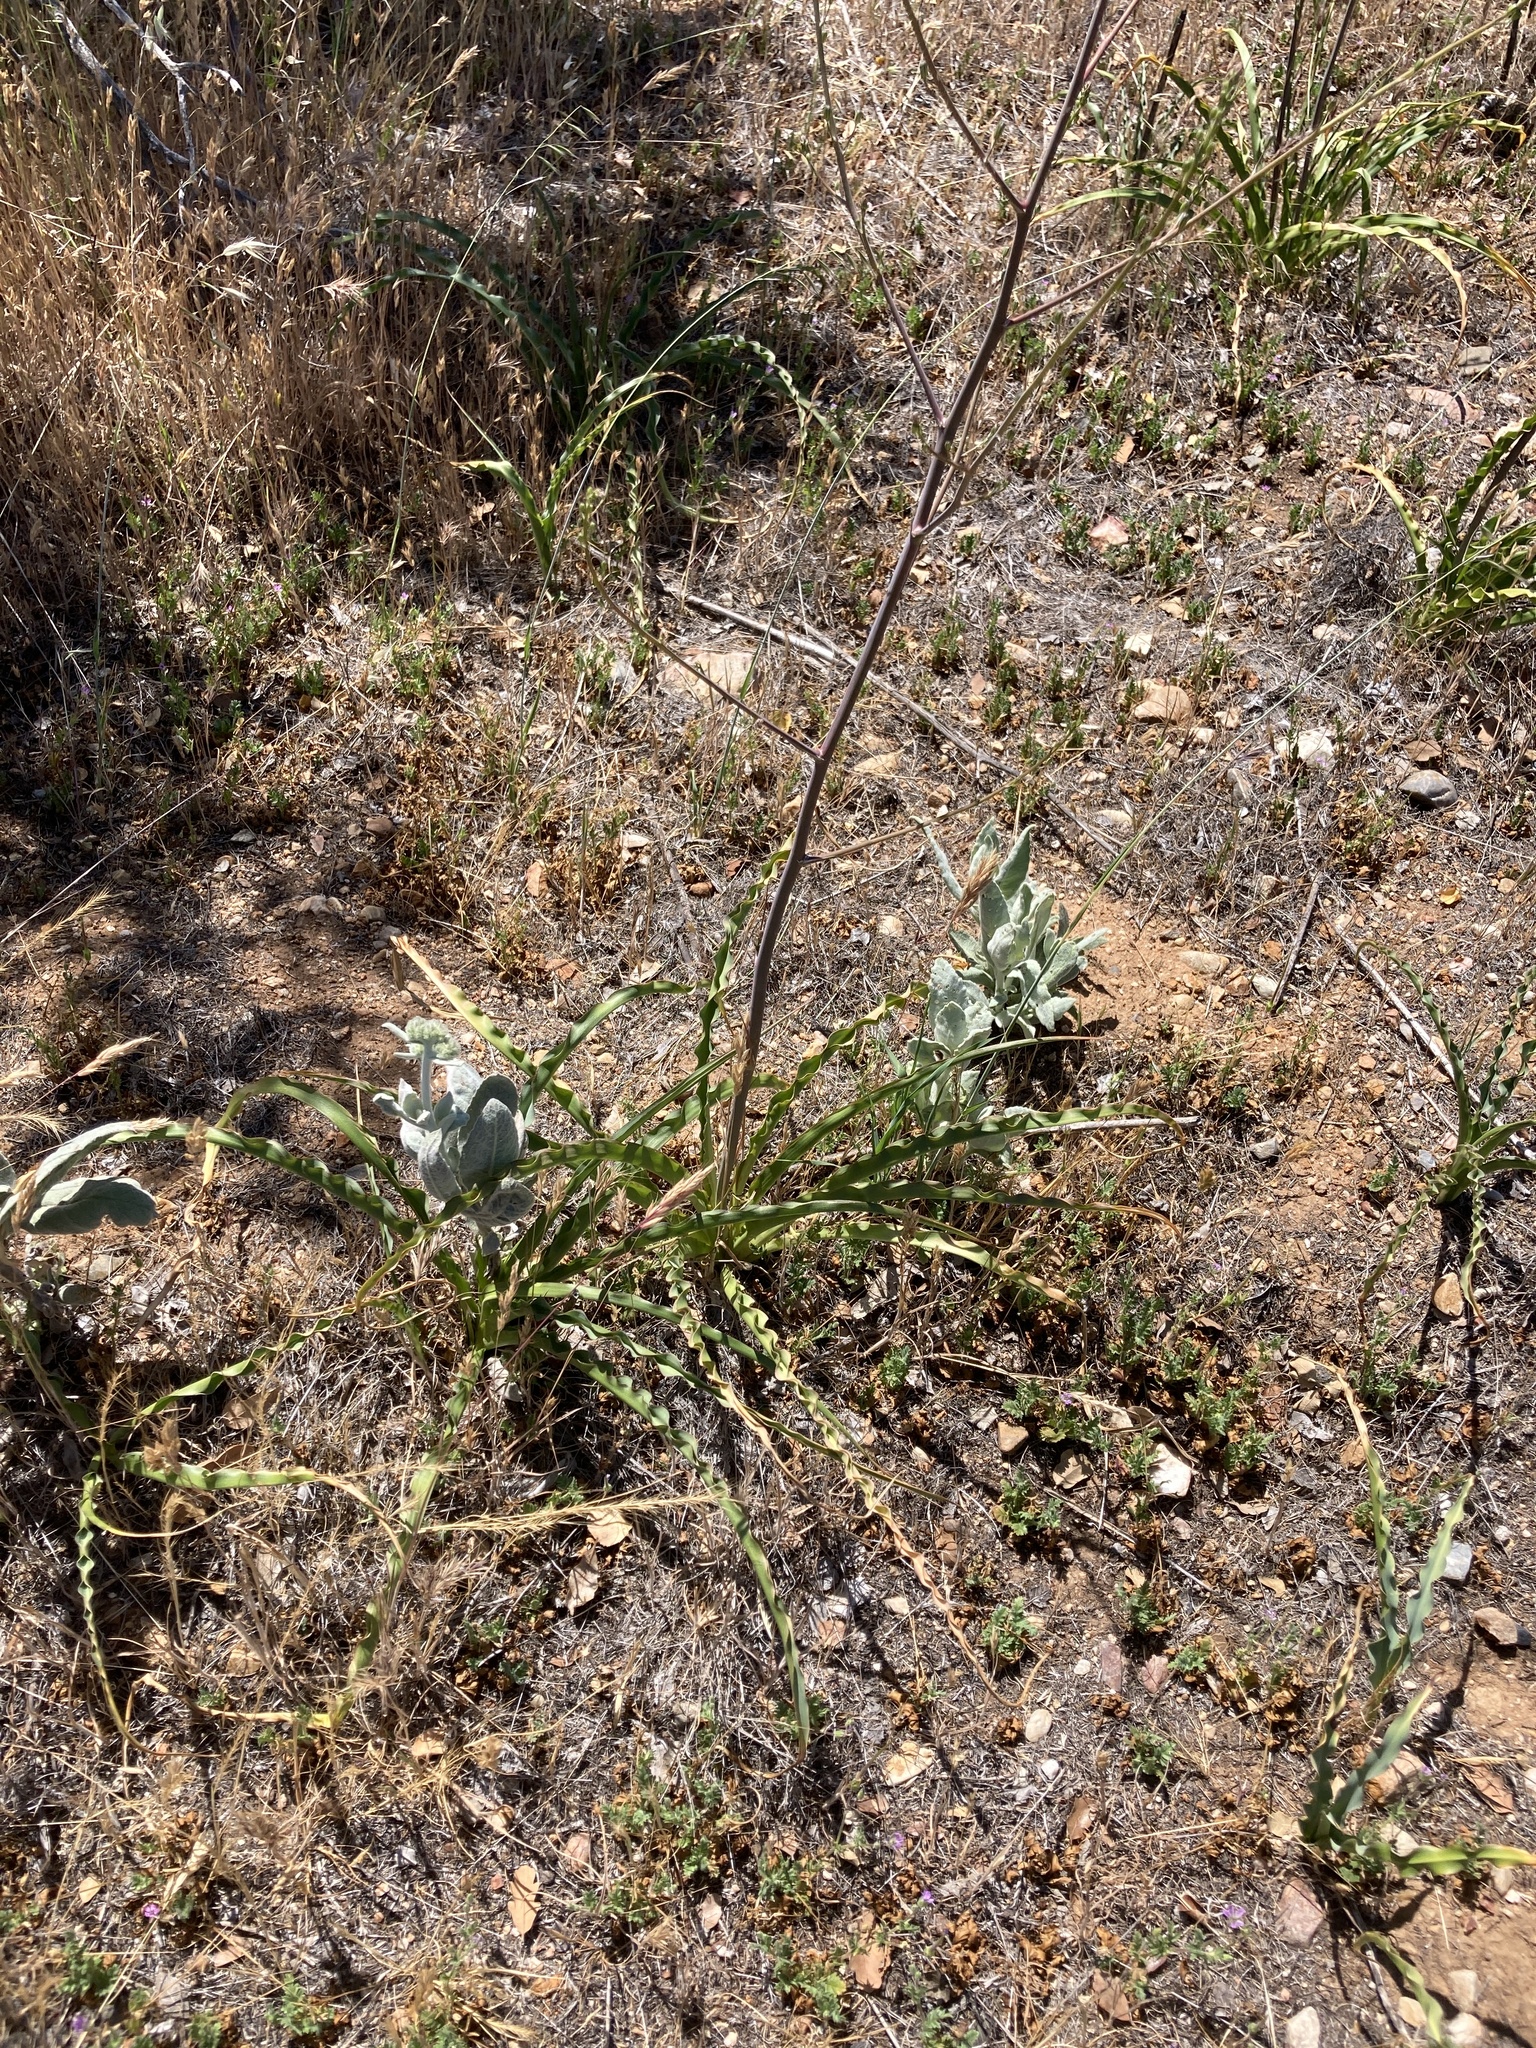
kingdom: Plantae
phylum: Tracheophyta
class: Liliopsida
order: Asparagales
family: Asparagaceae
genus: Chlorogalum
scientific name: Chlorogalum pomeridianum
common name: Amole
